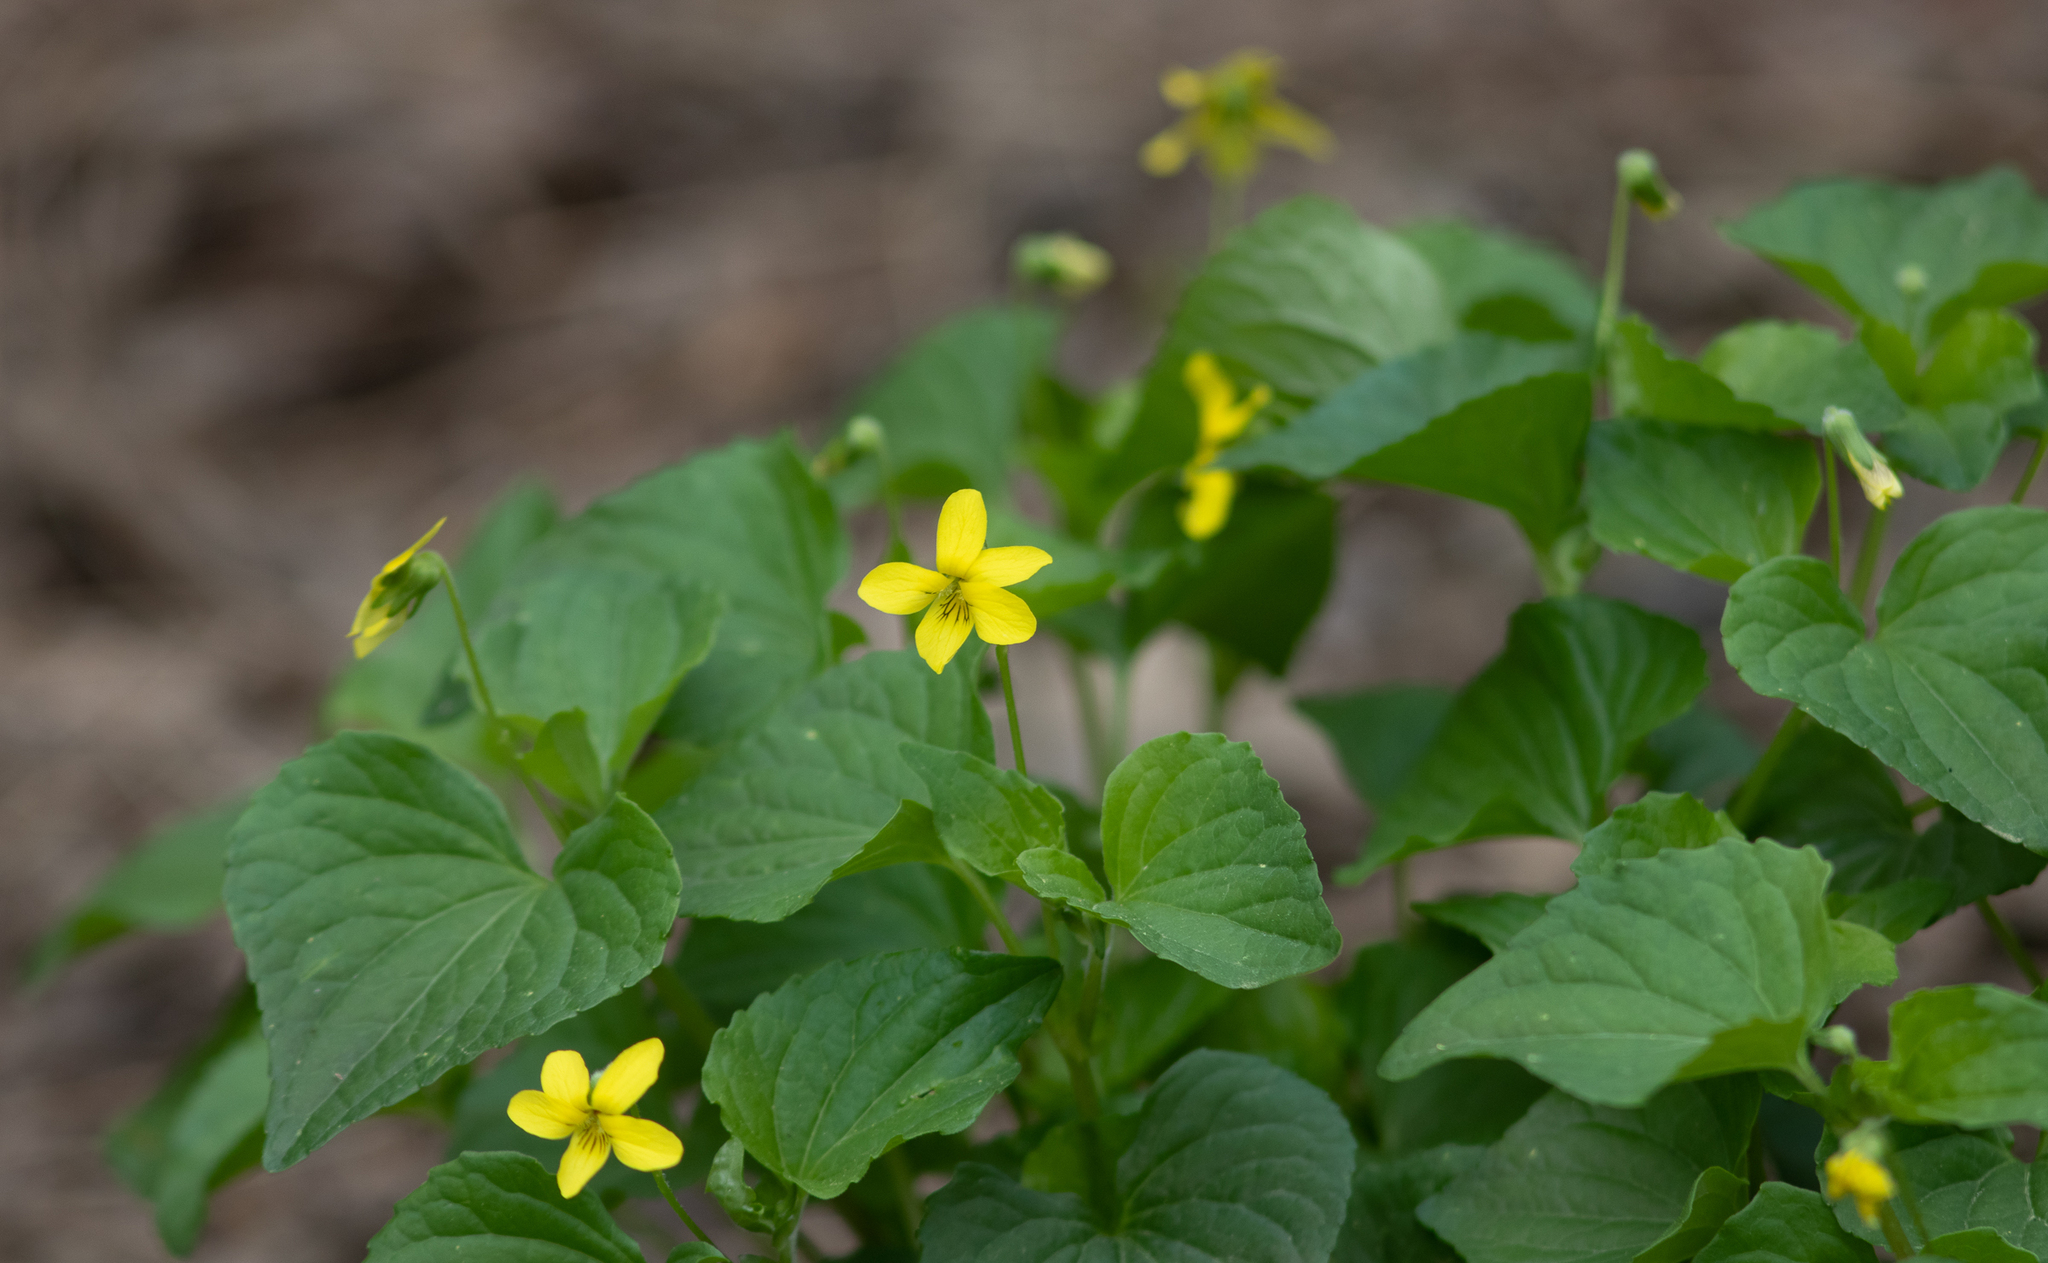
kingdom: Plantae
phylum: Tracheophyta
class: Magnoliopsida
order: Malpighiales
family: Violaceae
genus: Viola
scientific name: Viola eriocarpa
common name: Smooth yellow violet
